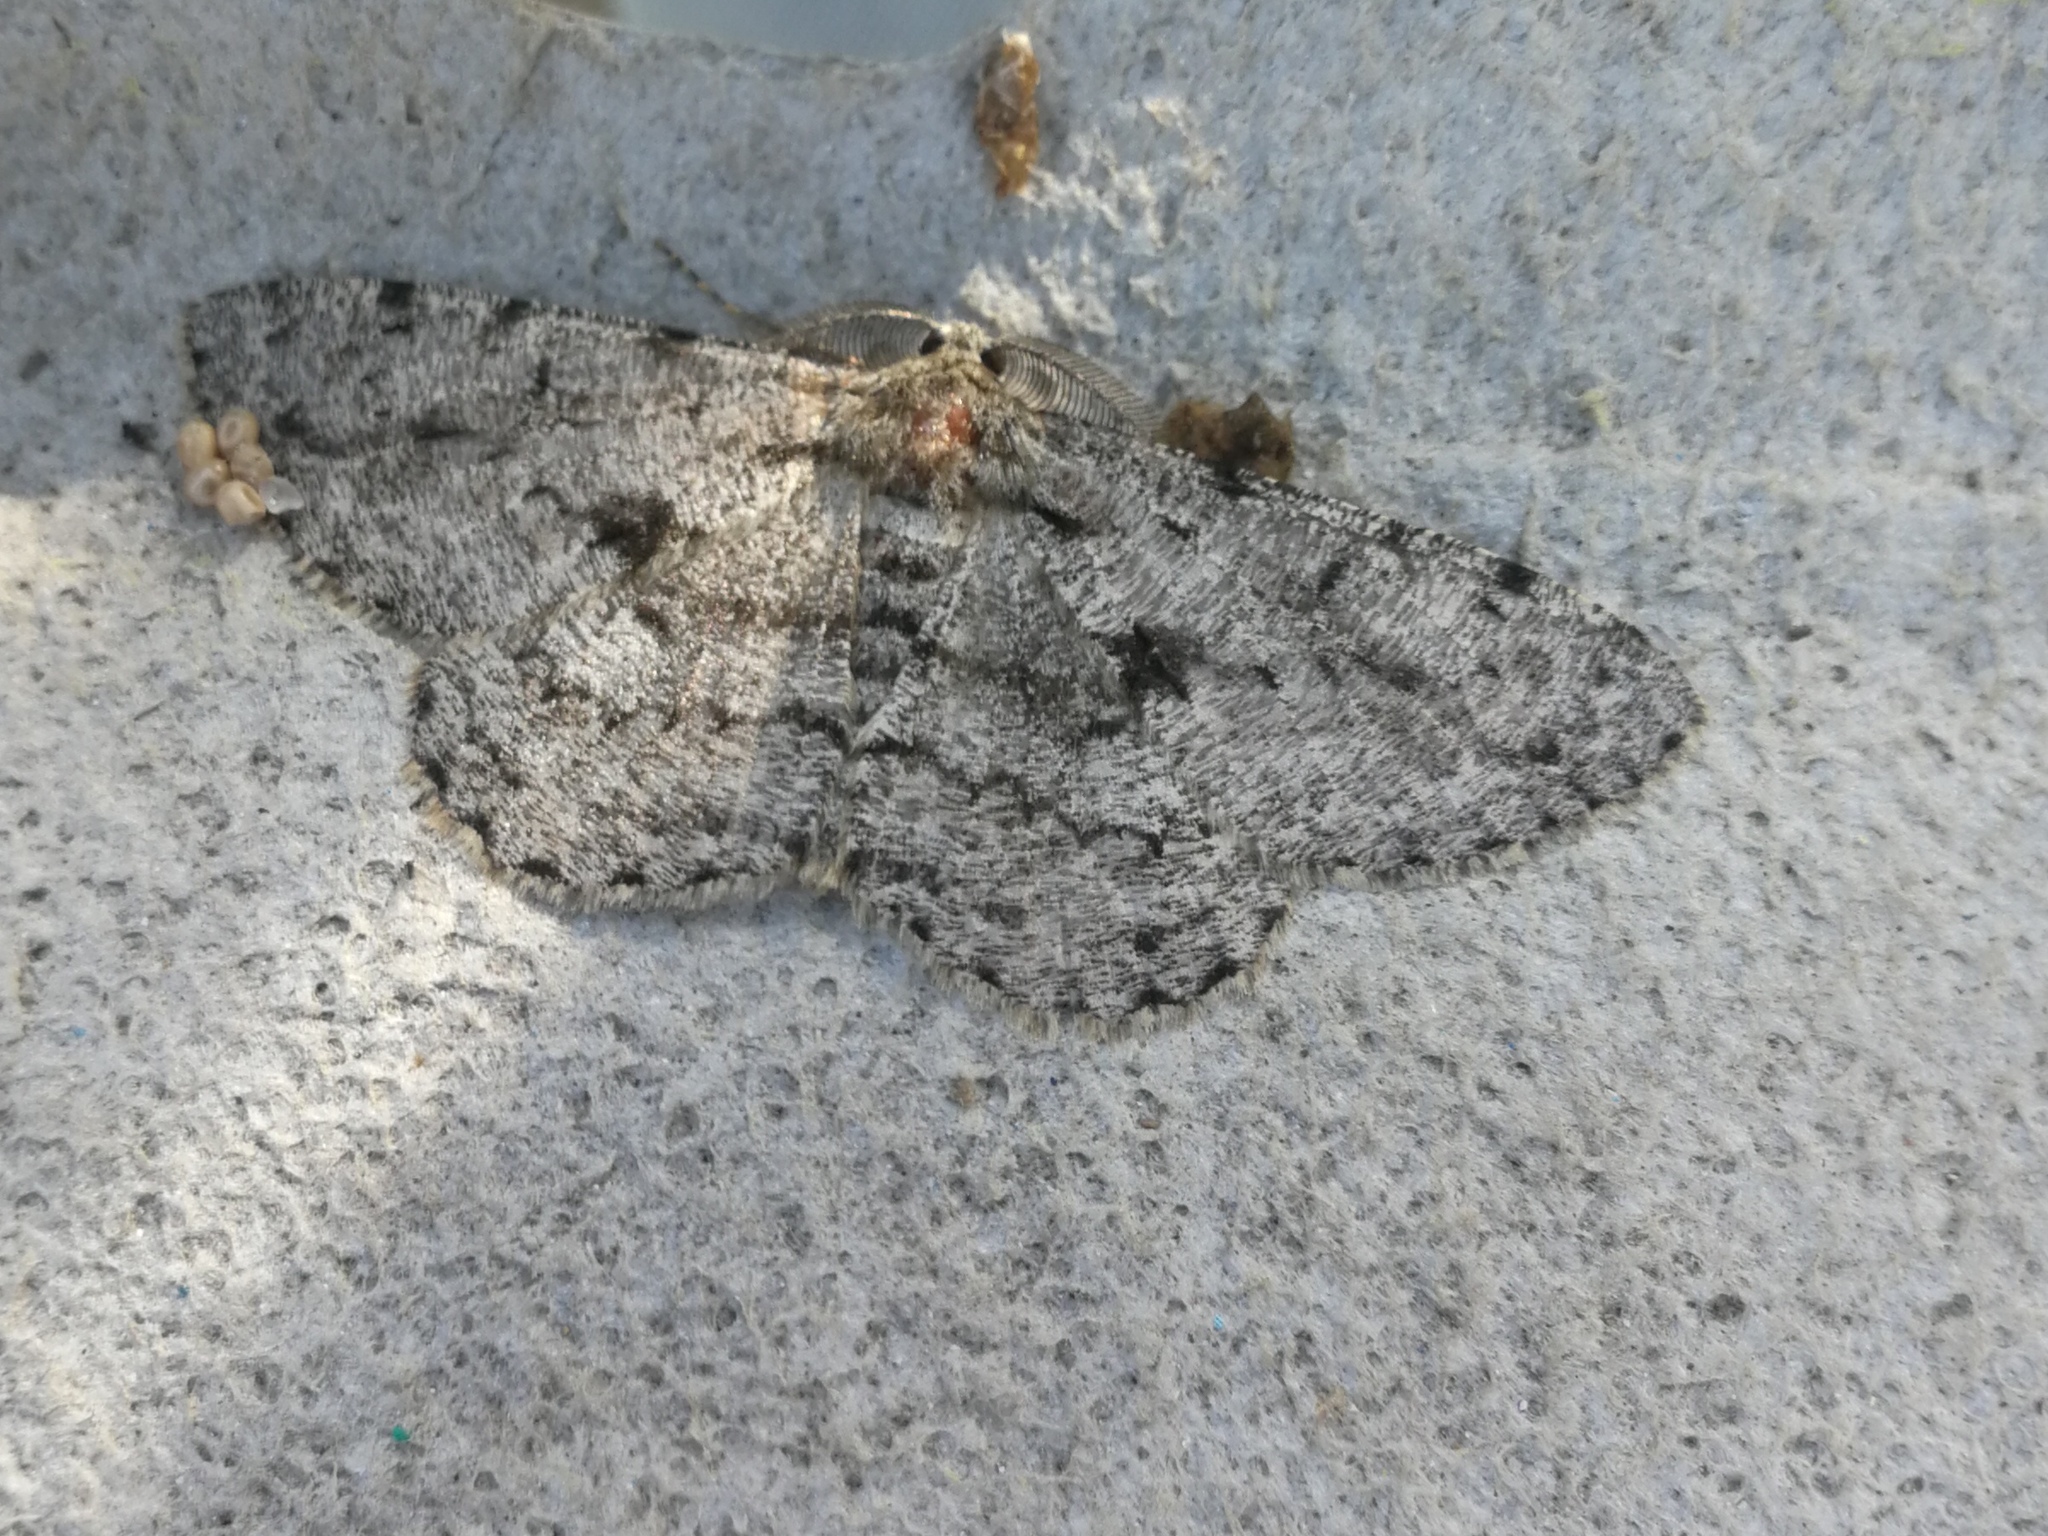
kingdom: Animalia
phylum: Arthropoda
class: Insecta
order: Lepidoptera
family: Geometridae
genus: Hypomecis
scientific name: Hypomecis roboraria
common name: Great oak beauty
